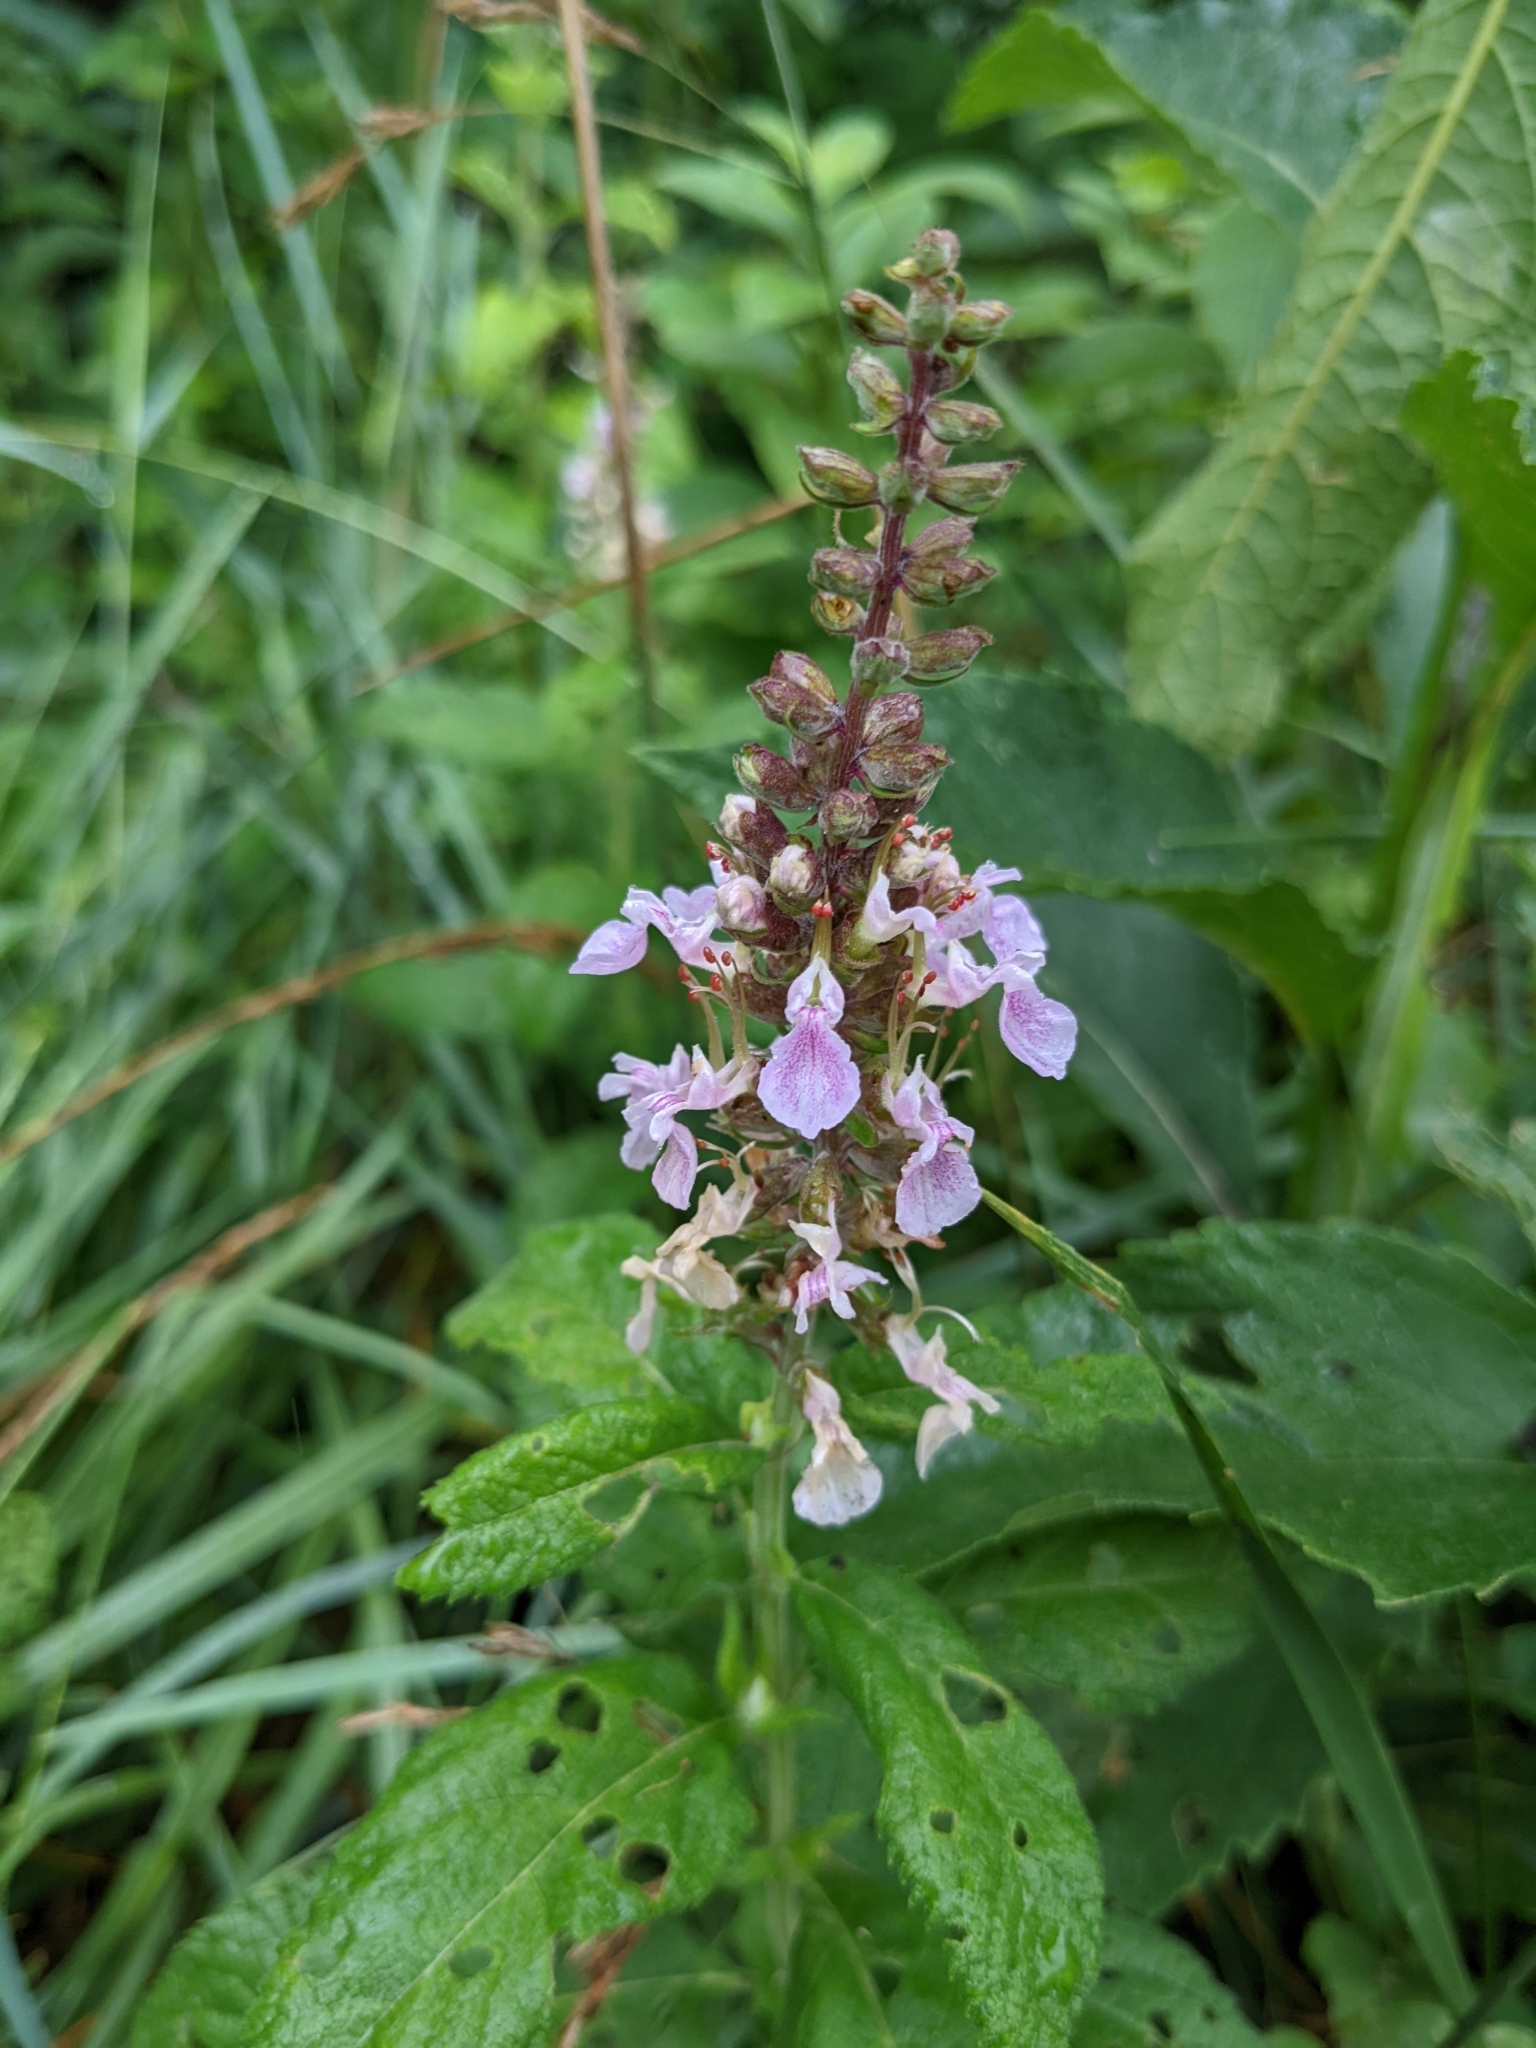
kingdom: Plantae
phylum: Tracheophyta
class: Magnoliopsida
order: Lamiales
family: Lamiaceae
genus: Teucrium
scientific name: Teucrium canadense
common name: American germander
